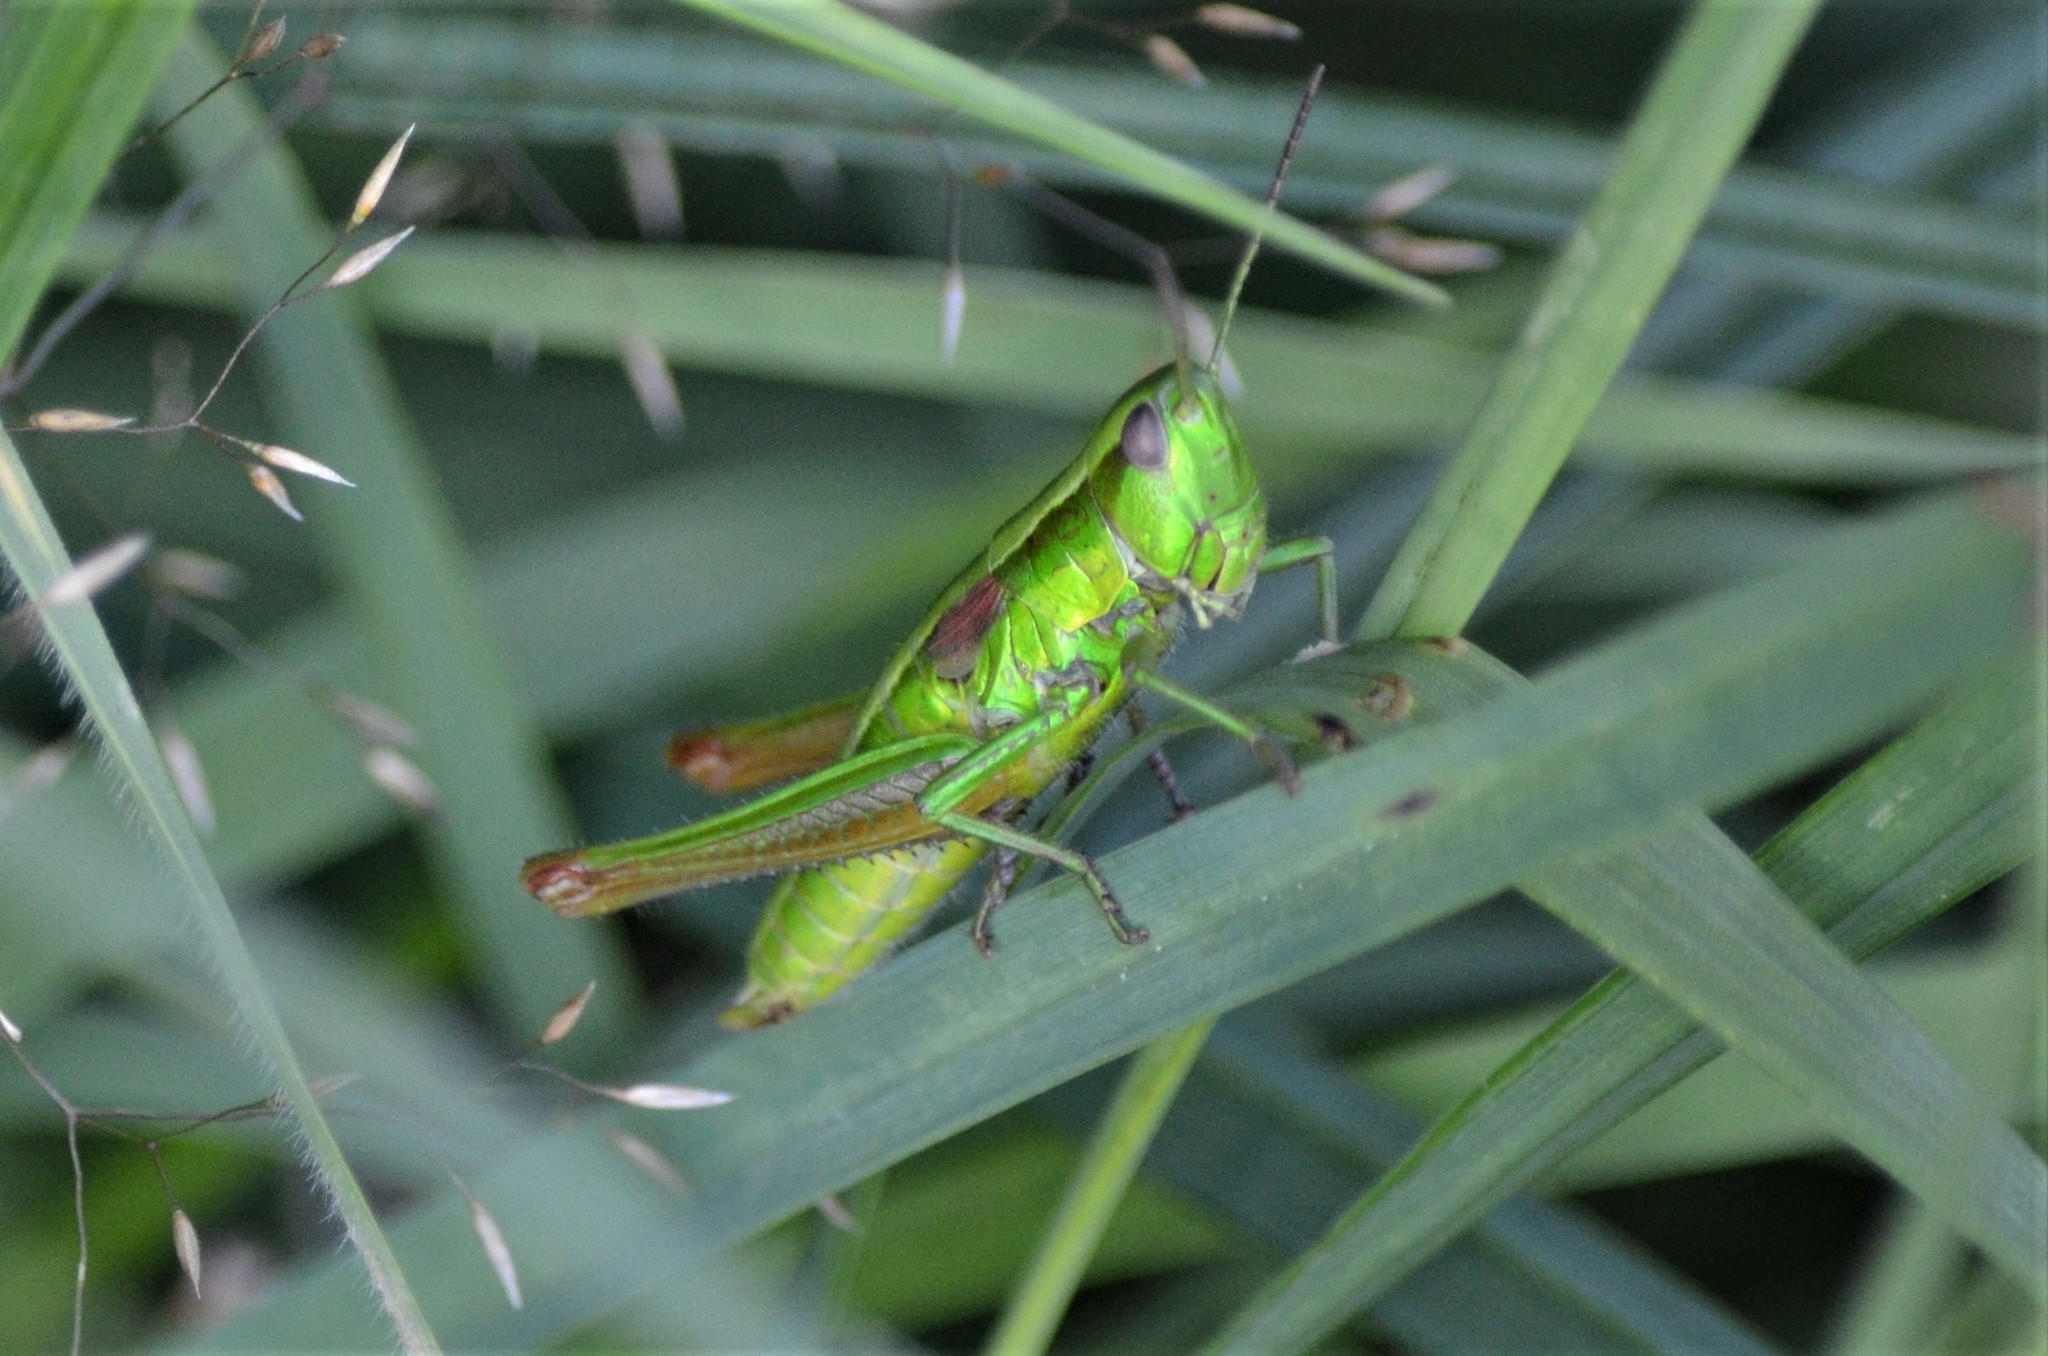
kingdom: Animalia
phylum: Arthropoda
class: Insecta
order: Orthoptera
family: Acrididae
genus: Euthystira
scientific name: Euthystira brachyptera
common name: Small gold grasshopper
